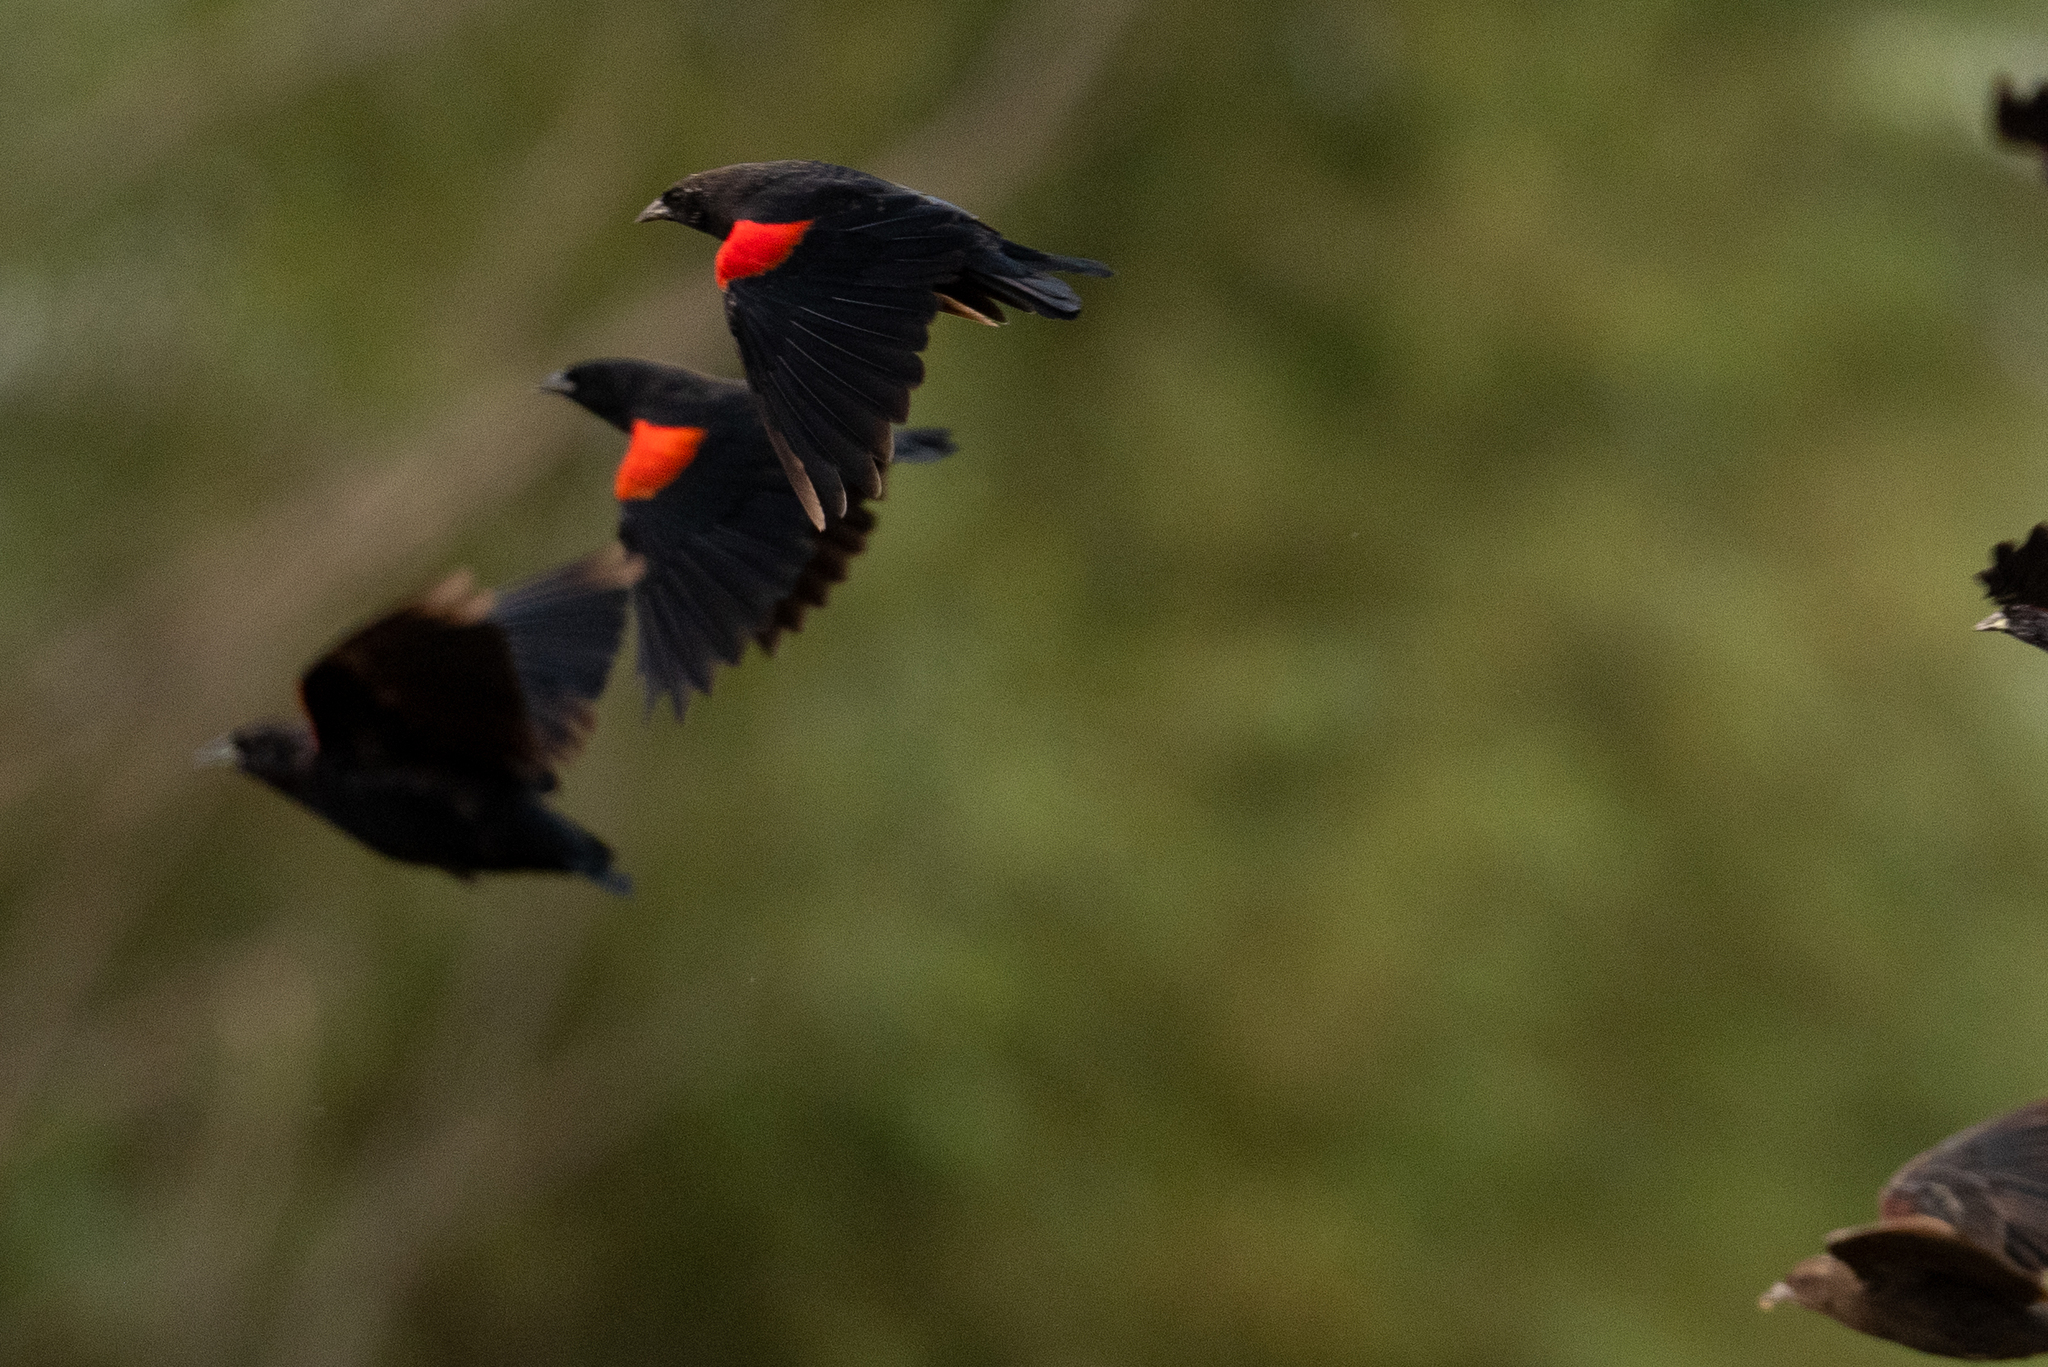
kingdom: Animalia
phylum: Chordata
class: Aves
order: Passeriformes
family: Icteridae
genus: Agelaius
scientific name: Agelaius tricolor
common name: Tricolored blackbird
